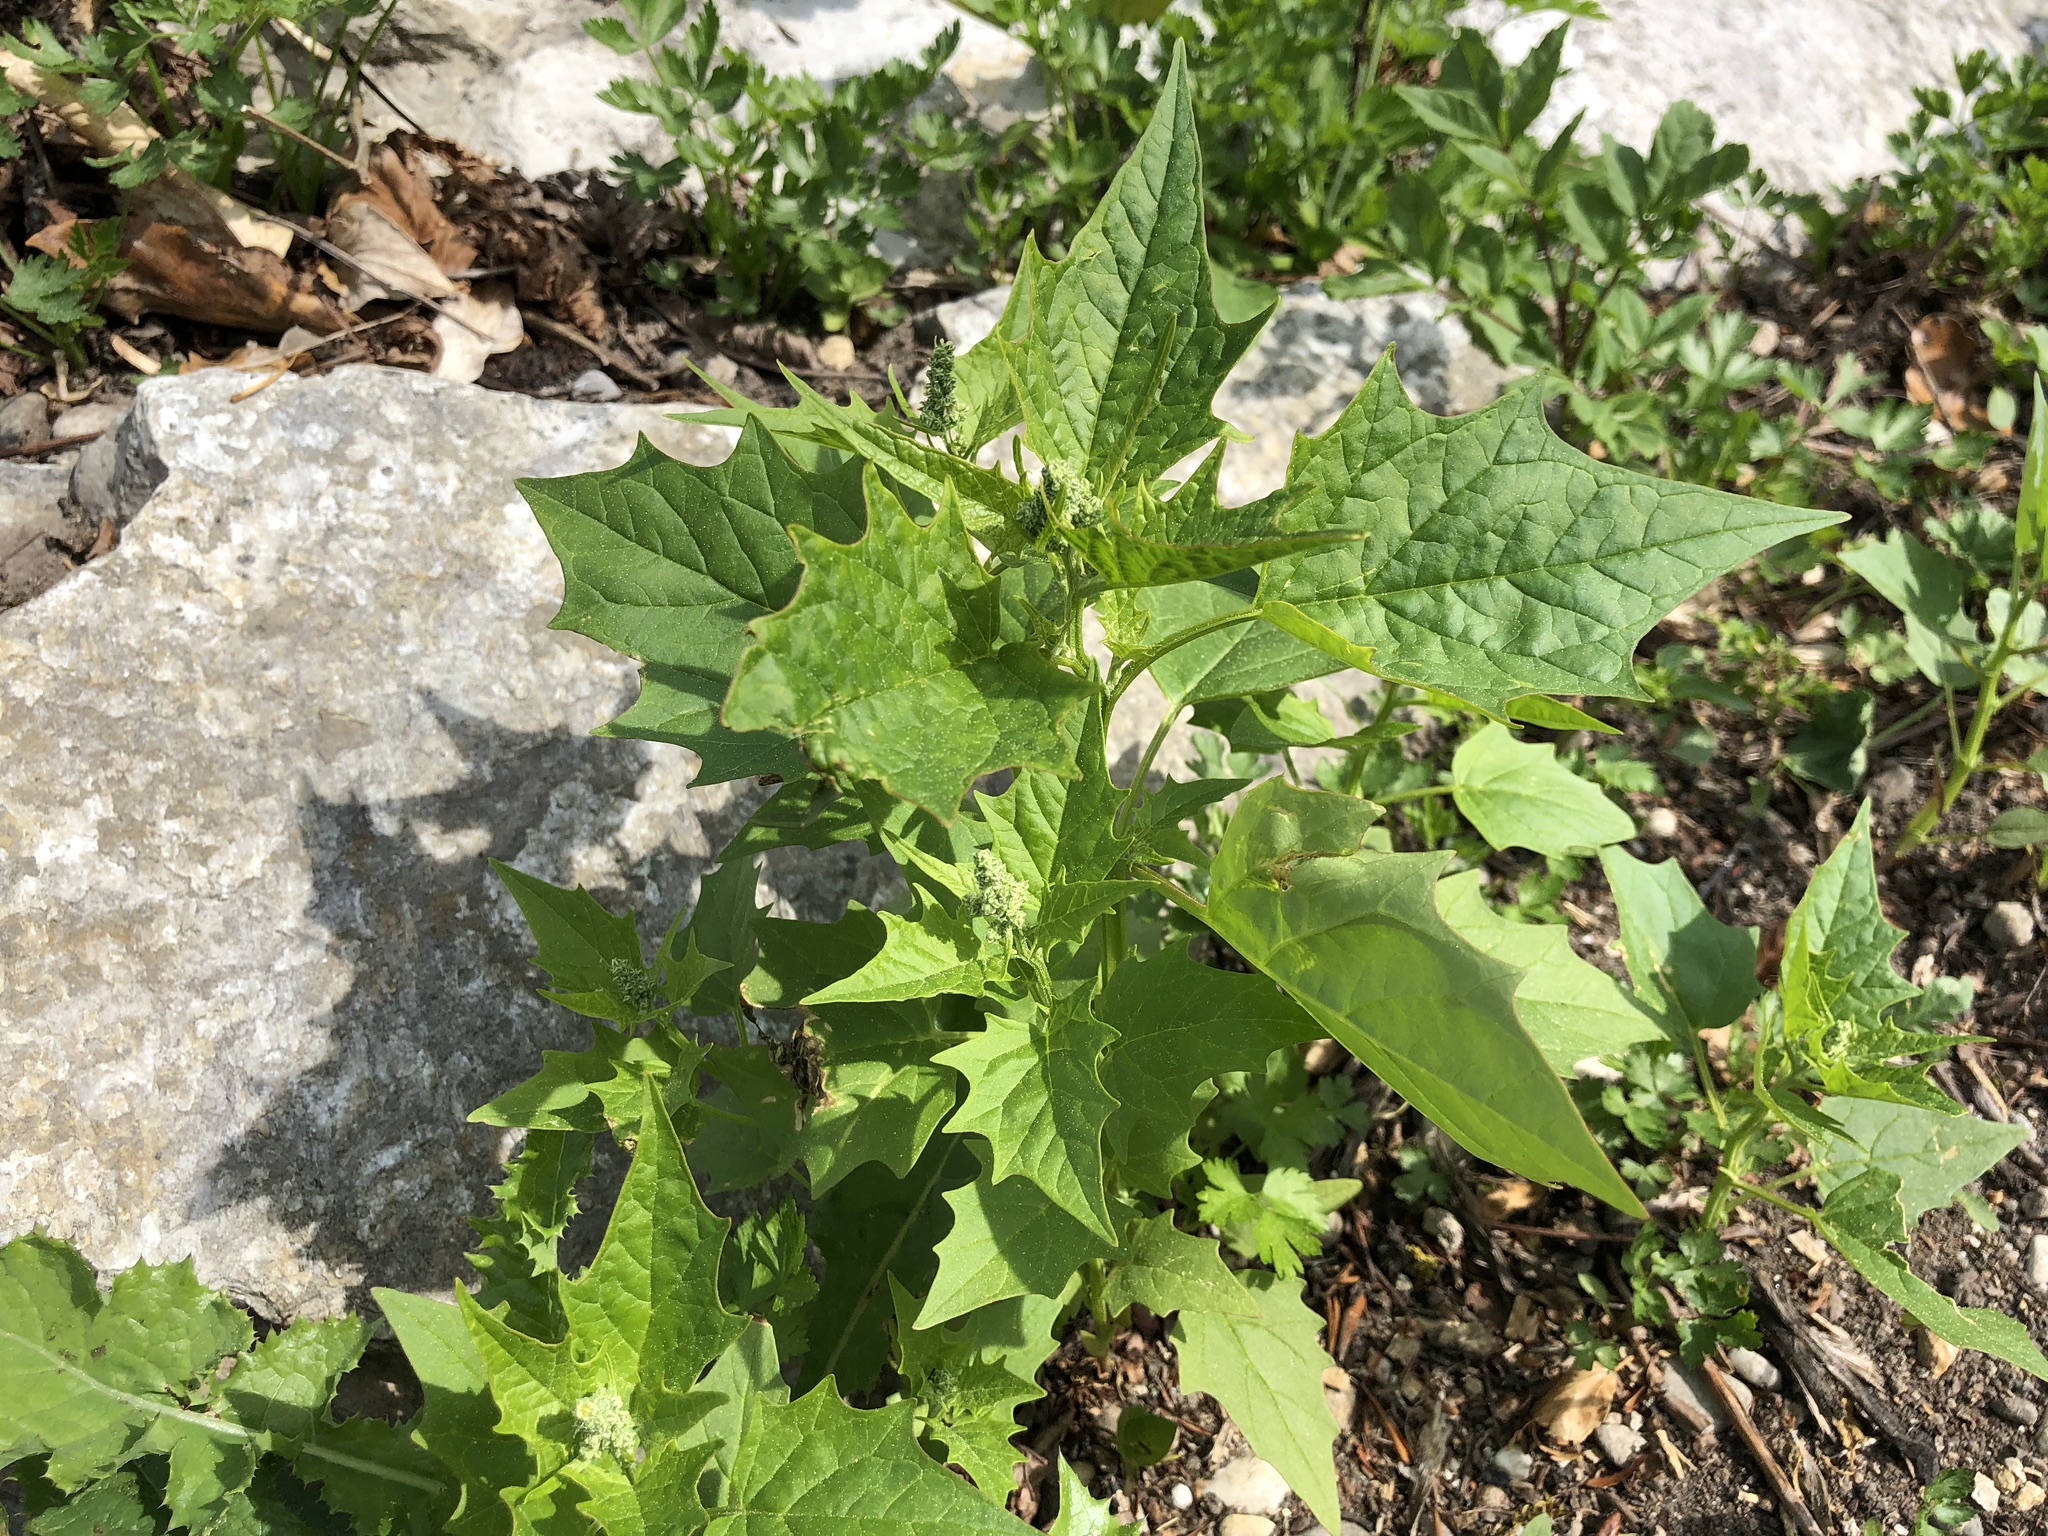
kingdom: Plantae
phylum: Tracheophyta
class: Magnoliopsida
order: Caryophyllales
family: Amaranthaceae
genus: Chenopodiastrum
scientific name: Chenopodiastrum hybridum
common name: Mapleleaf goosefoot
